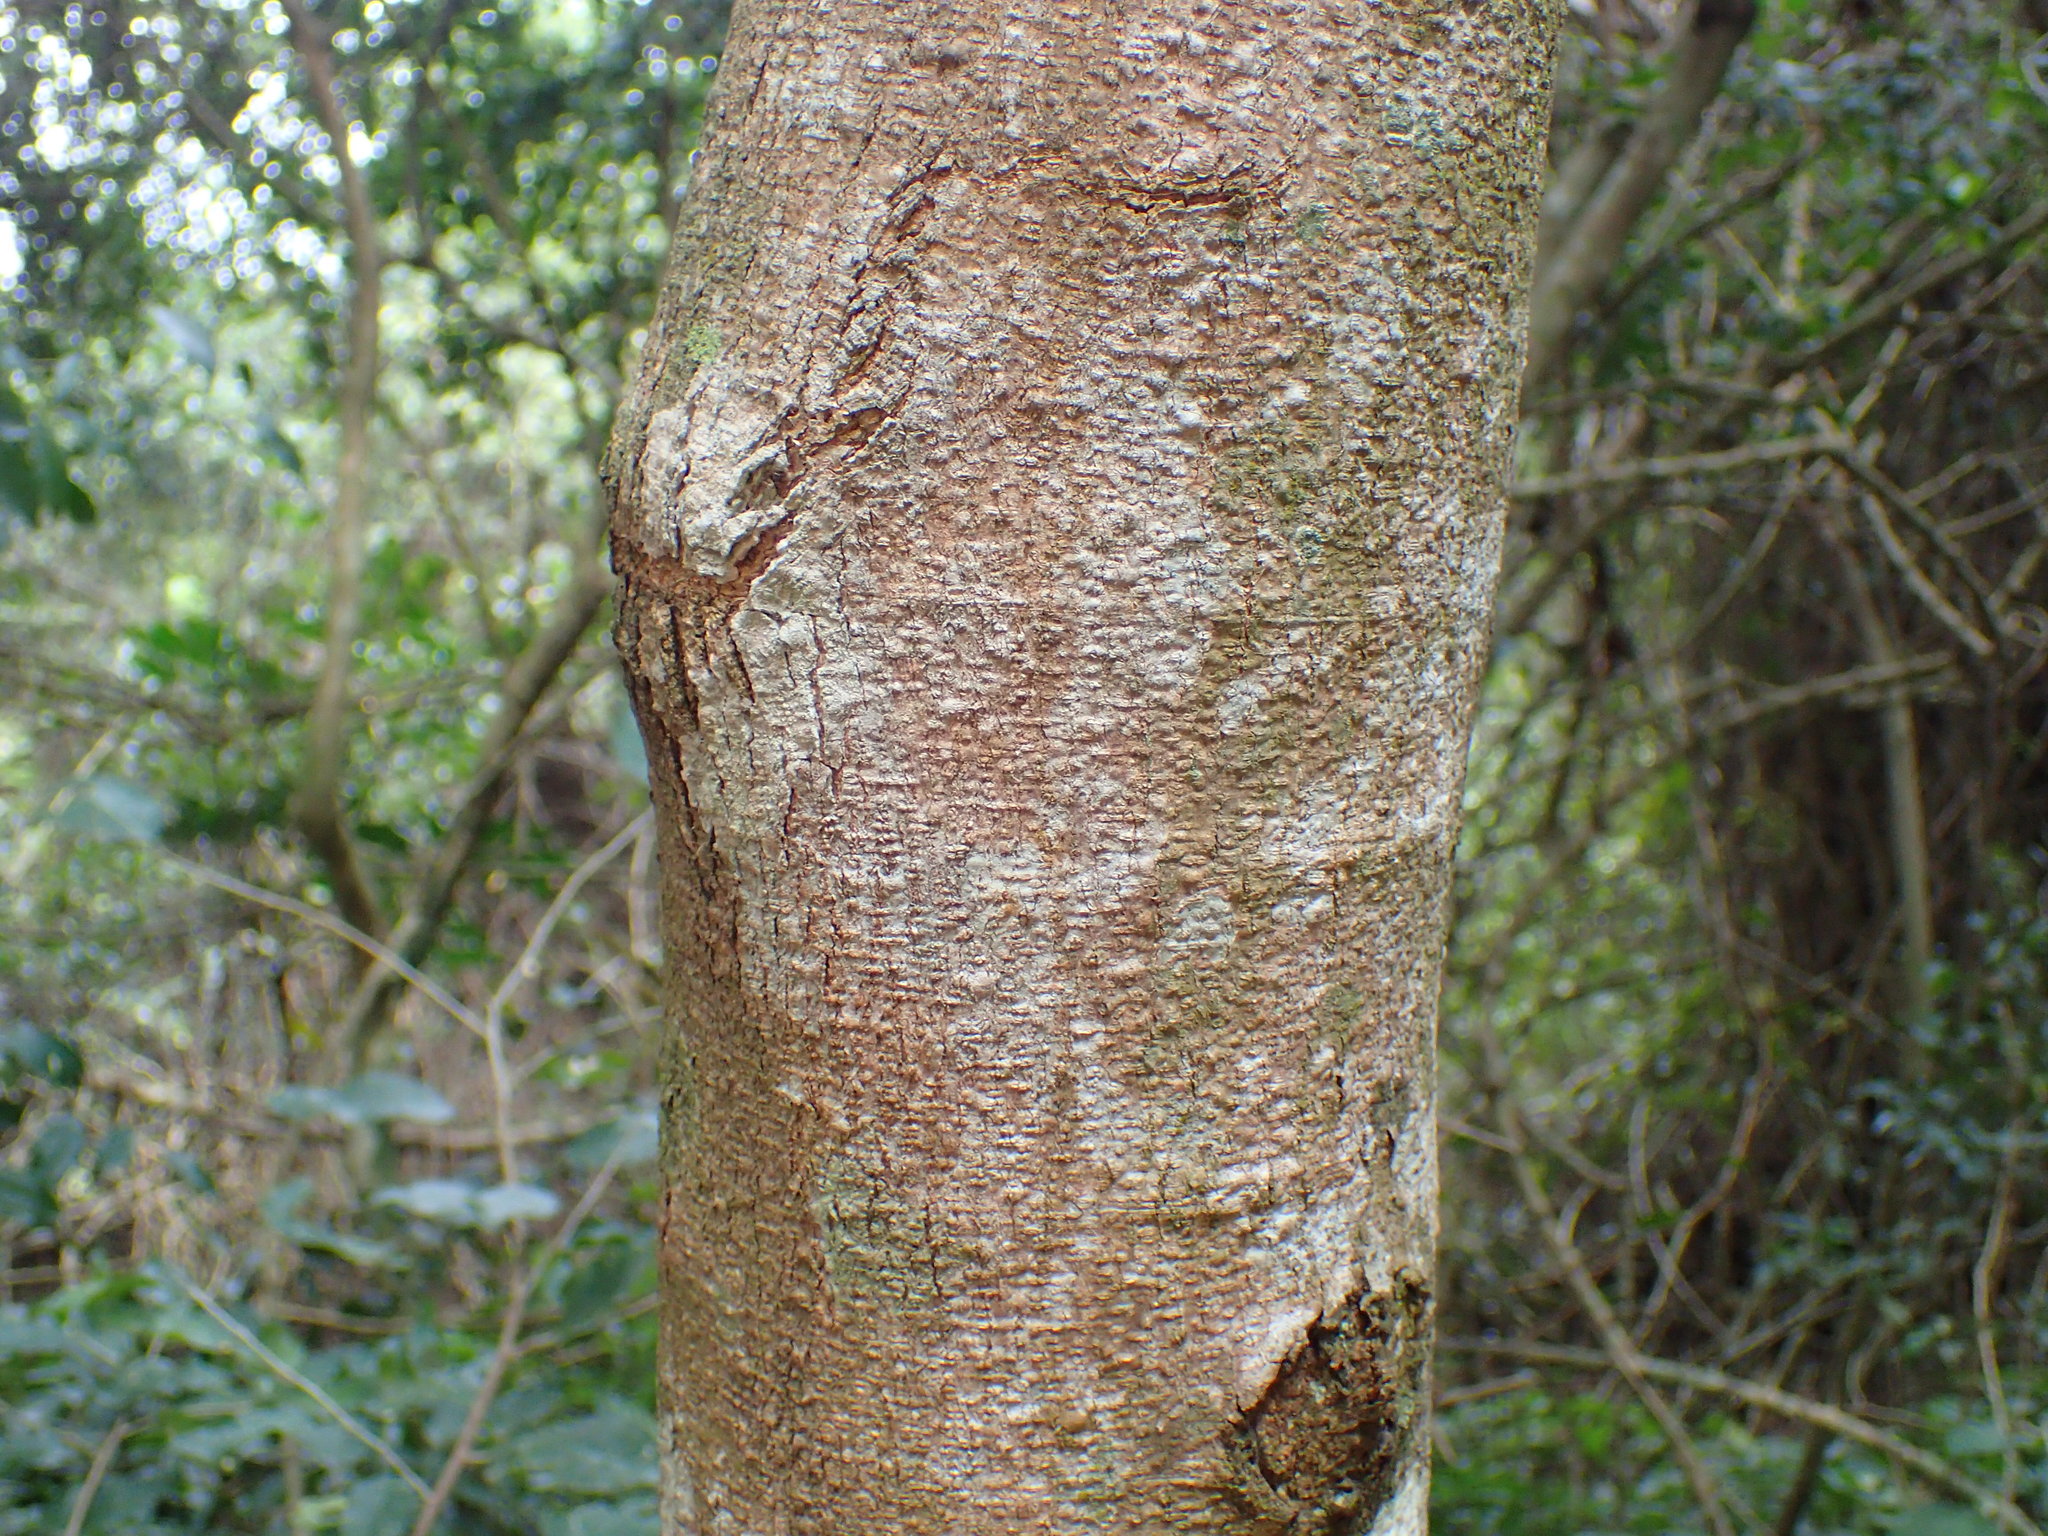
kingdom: Plantae
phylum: Tracheophyta
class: Magnoliopsida
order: Fabales
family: Fabaceae
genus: Bracteolaria
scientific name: Bracteolaria racemosa
